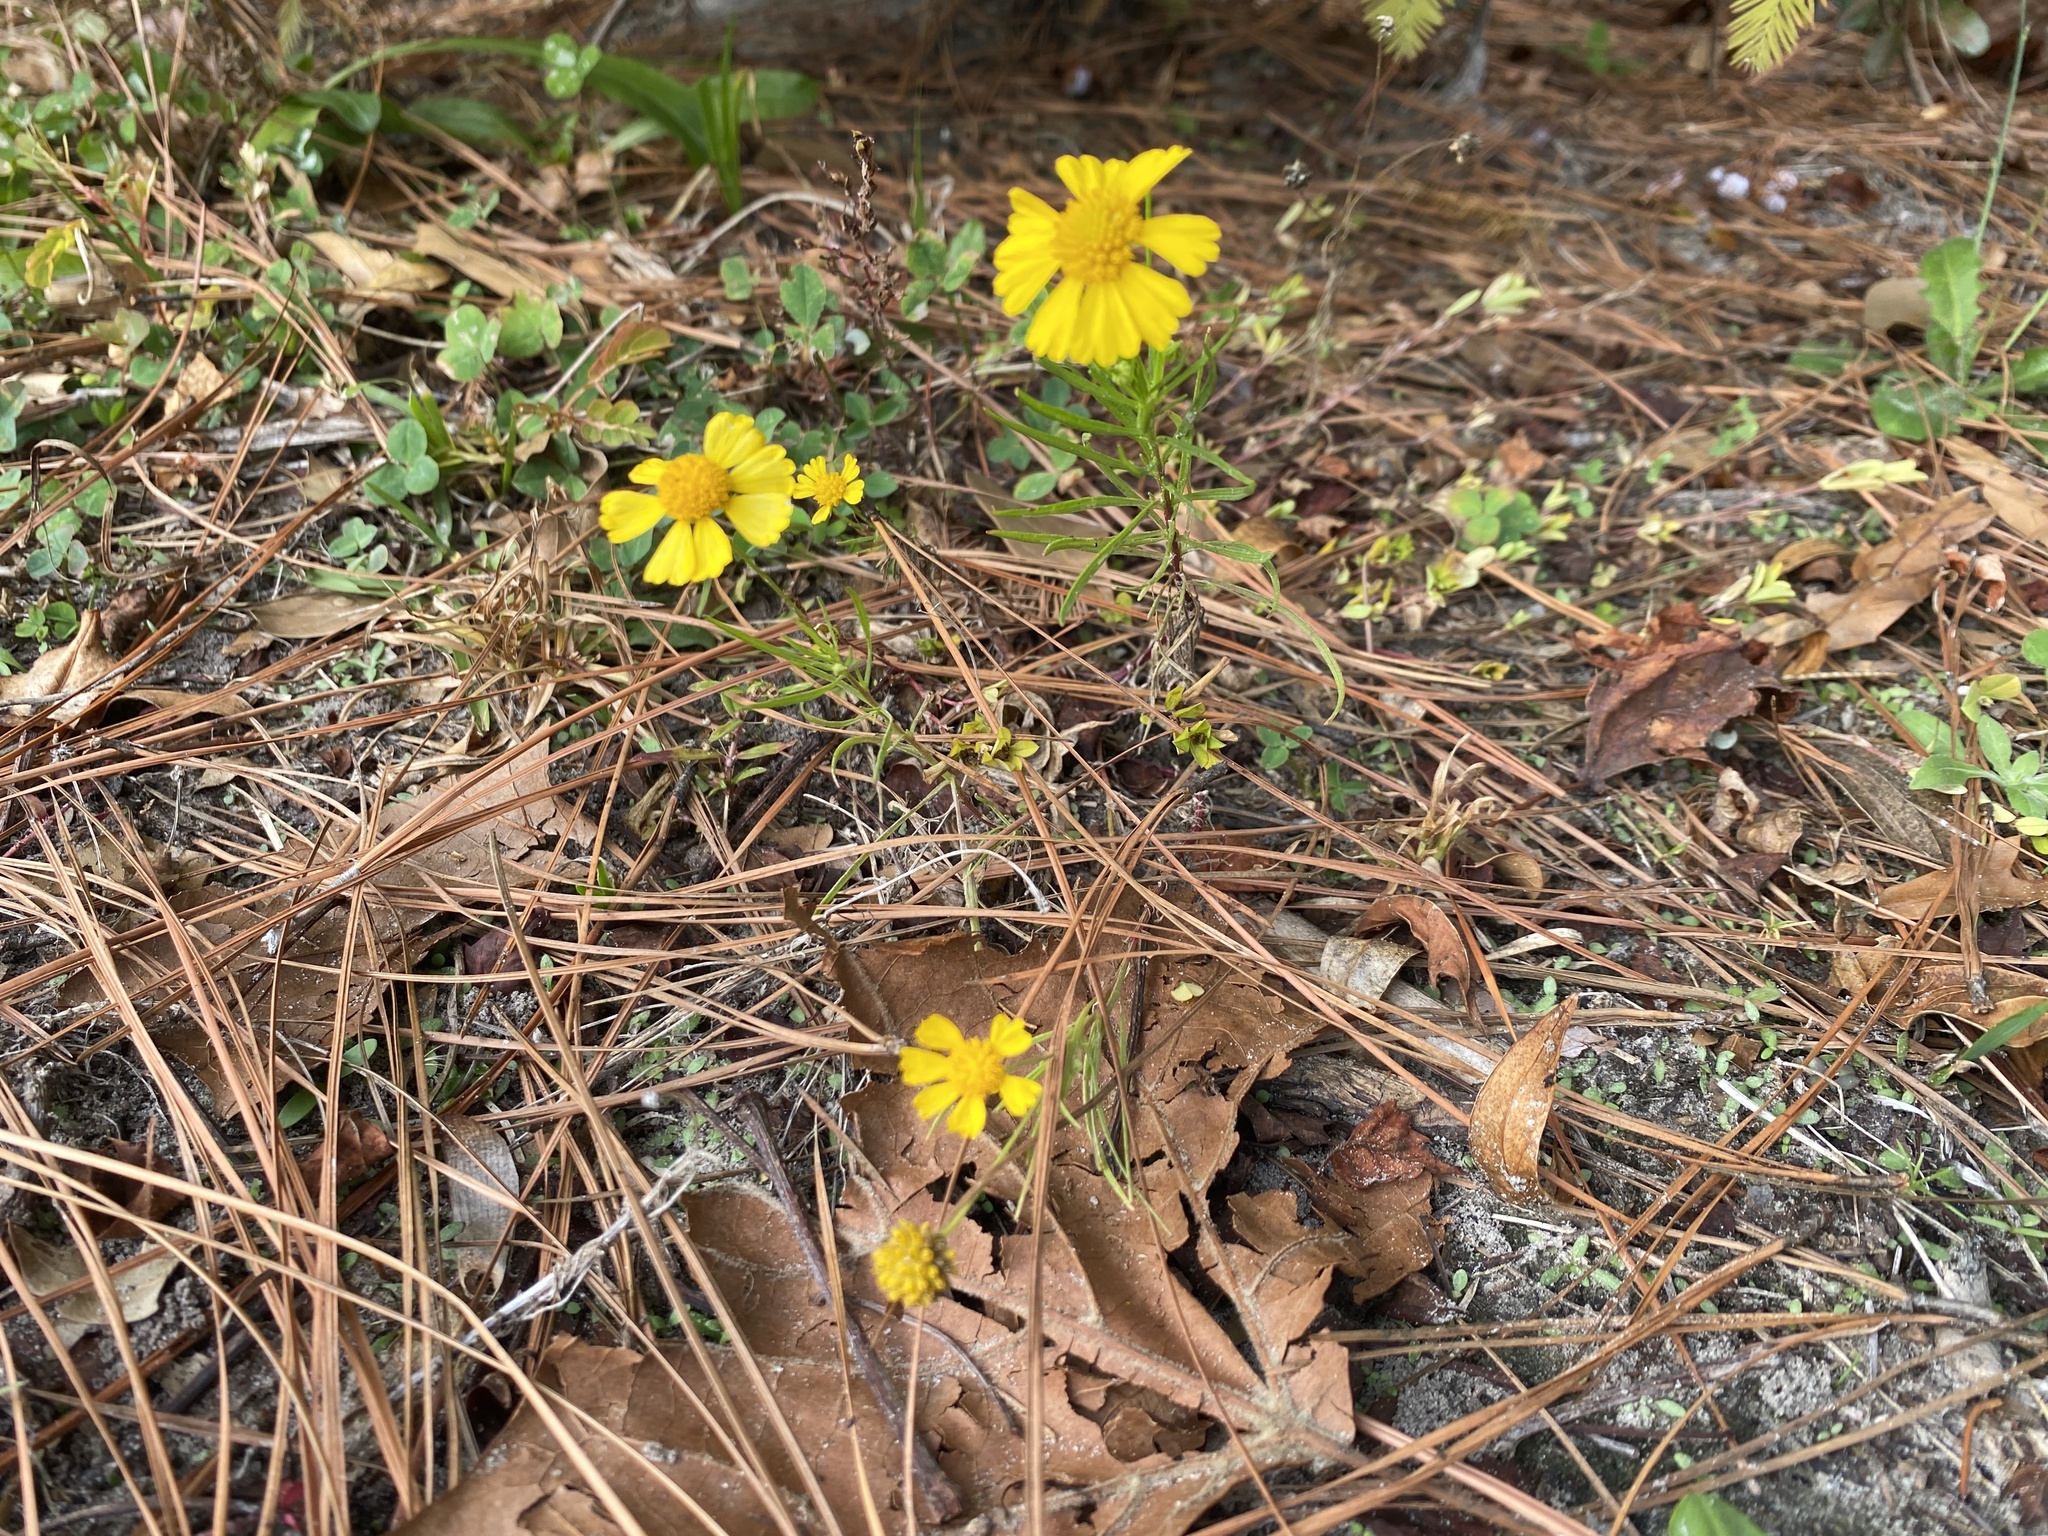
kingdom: Plantae
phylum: Tracheophyta
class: Magnoliopsida
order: Asterales
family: Asteraceae
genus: Helenium
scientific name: Helenium amarum
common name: Bitter sneezeweed
